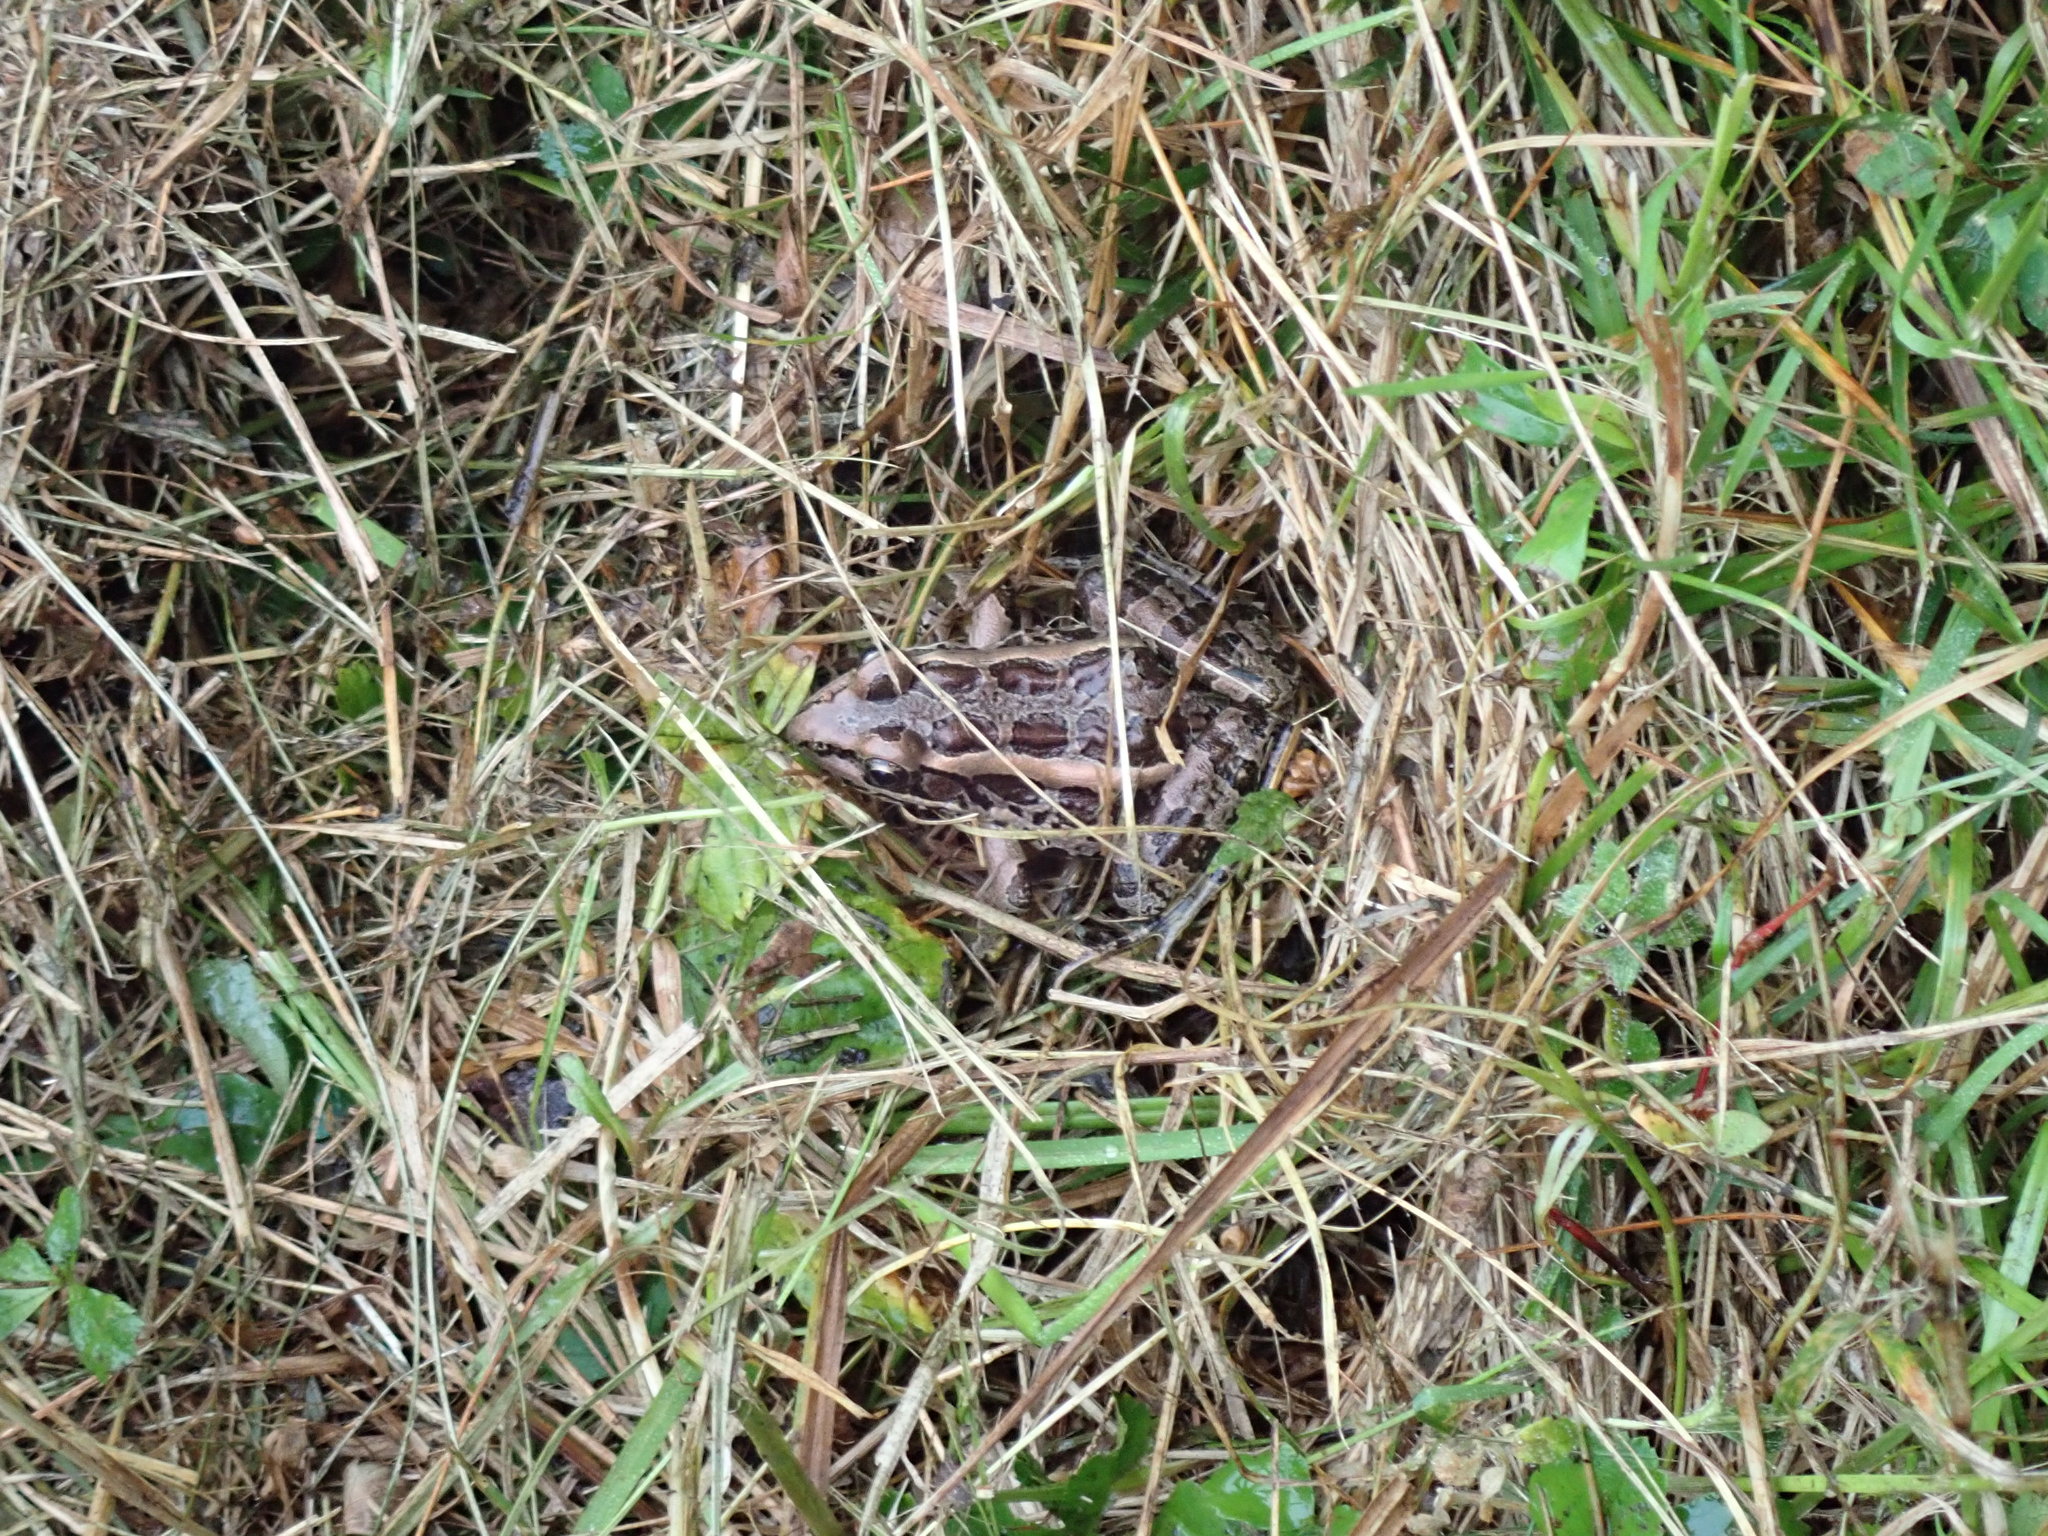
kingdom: Animalia
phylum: Chordata
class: Amphibia
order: Anura
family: Ranidae
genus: Lithobates
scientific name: Lithobates palustris
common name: Pickerel frog
